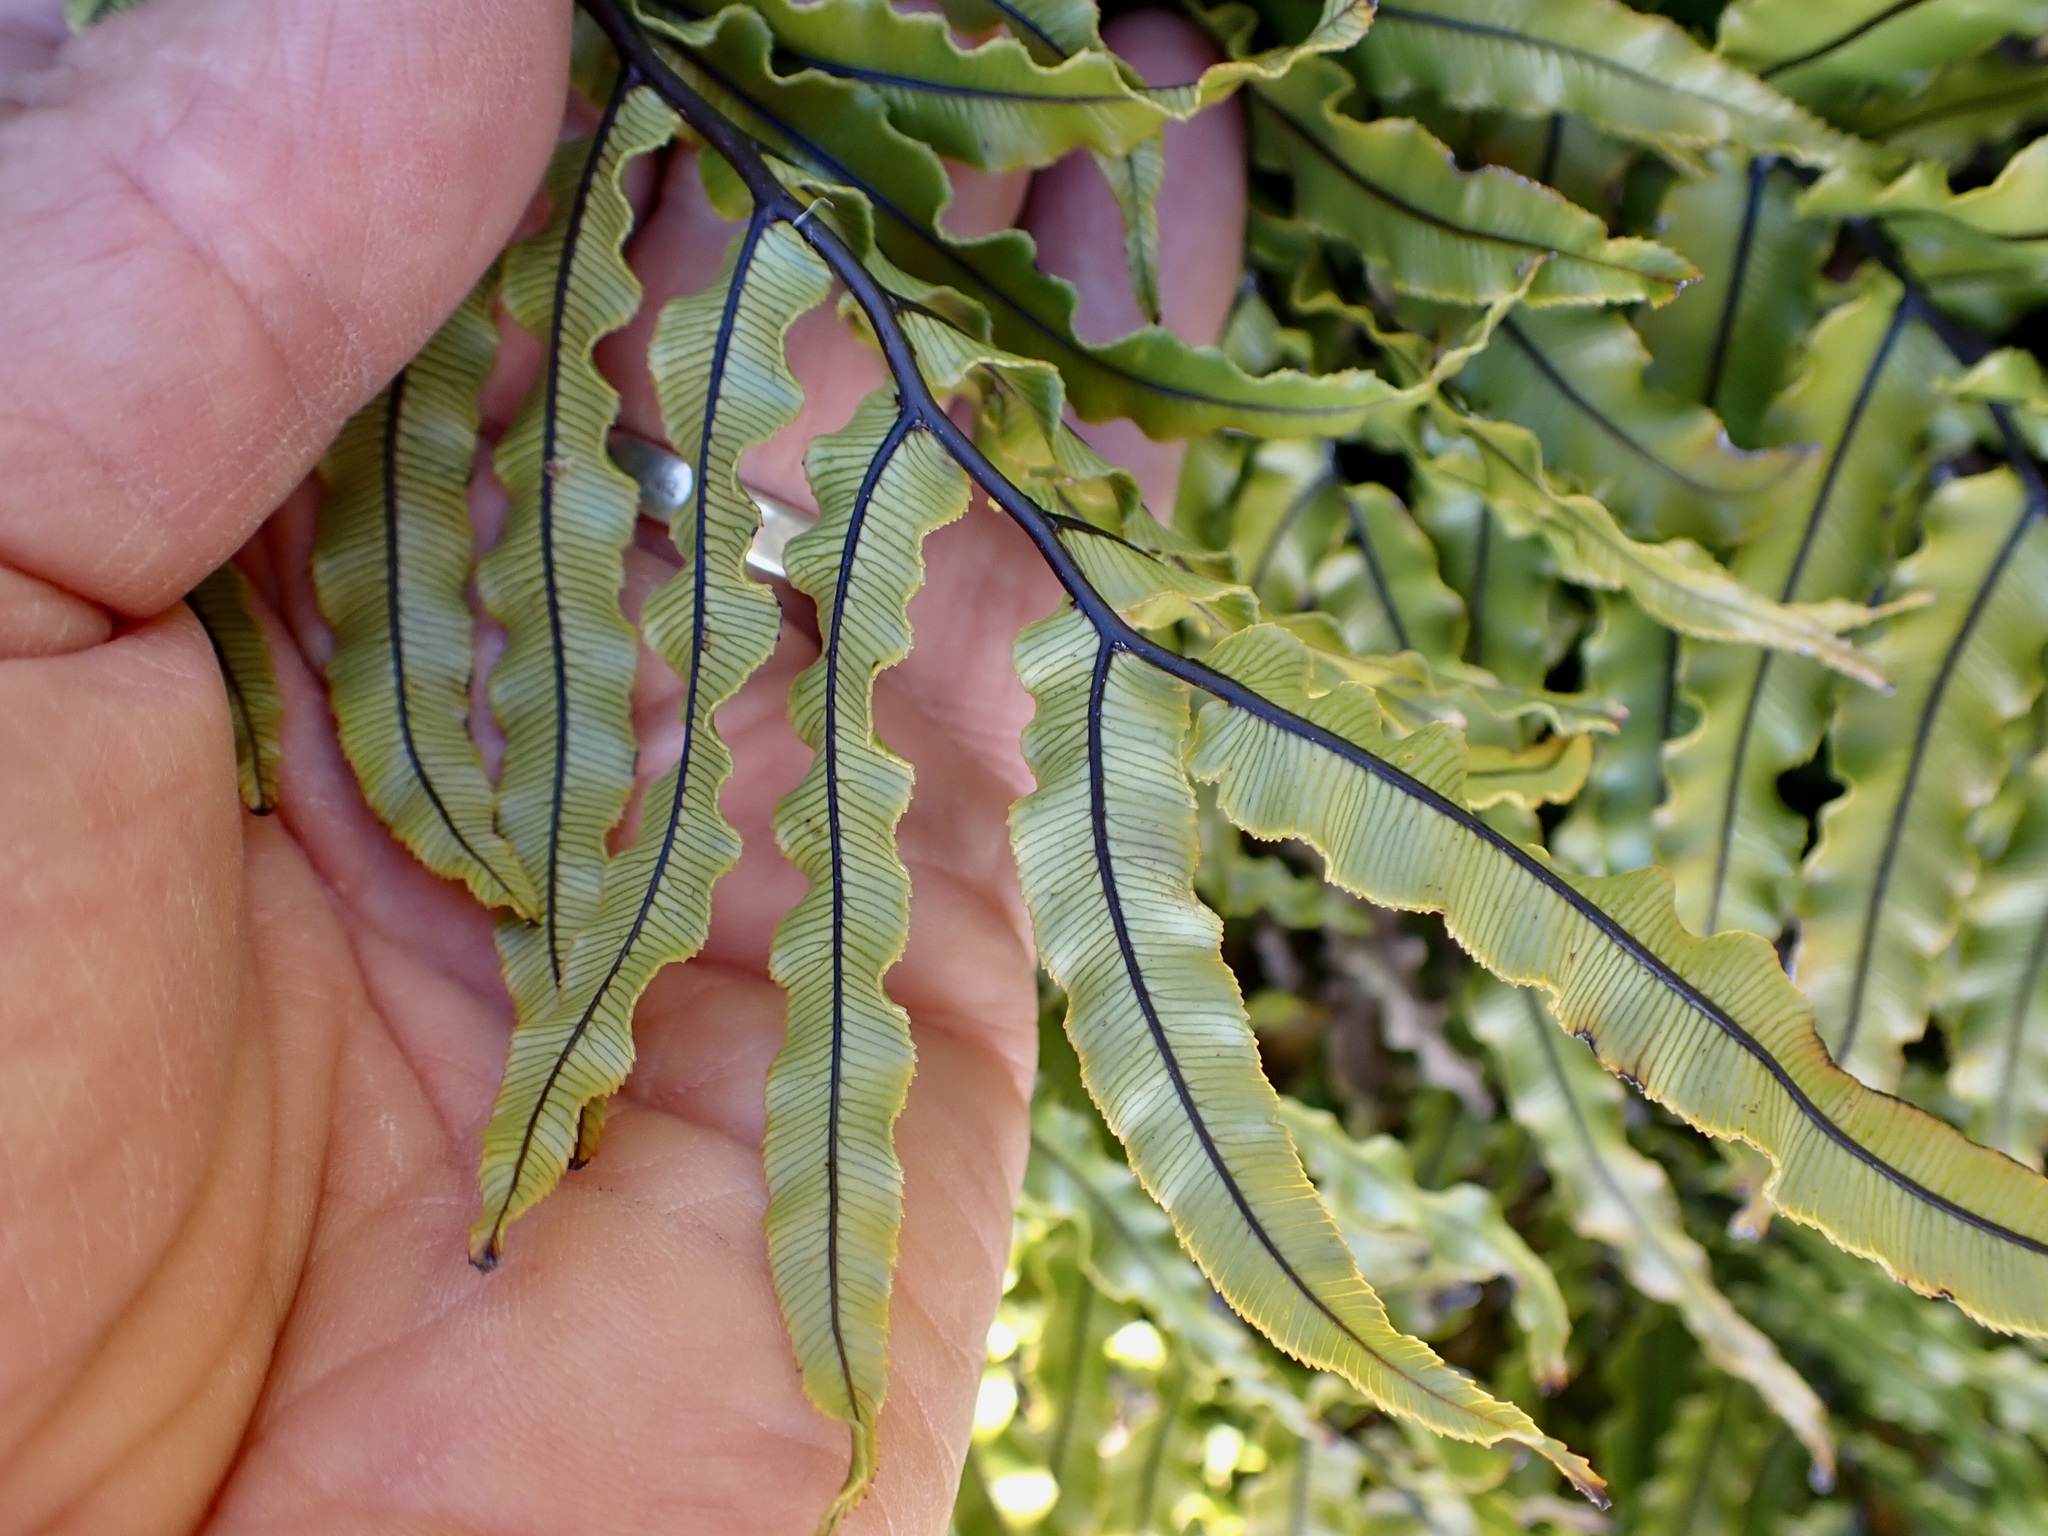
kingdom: Plantae
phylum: Tracheophyta
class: Polypodiopsida
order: Polypodiales
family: Blechnaceae
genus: Parablechnum
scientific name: Parablechnum montanum
